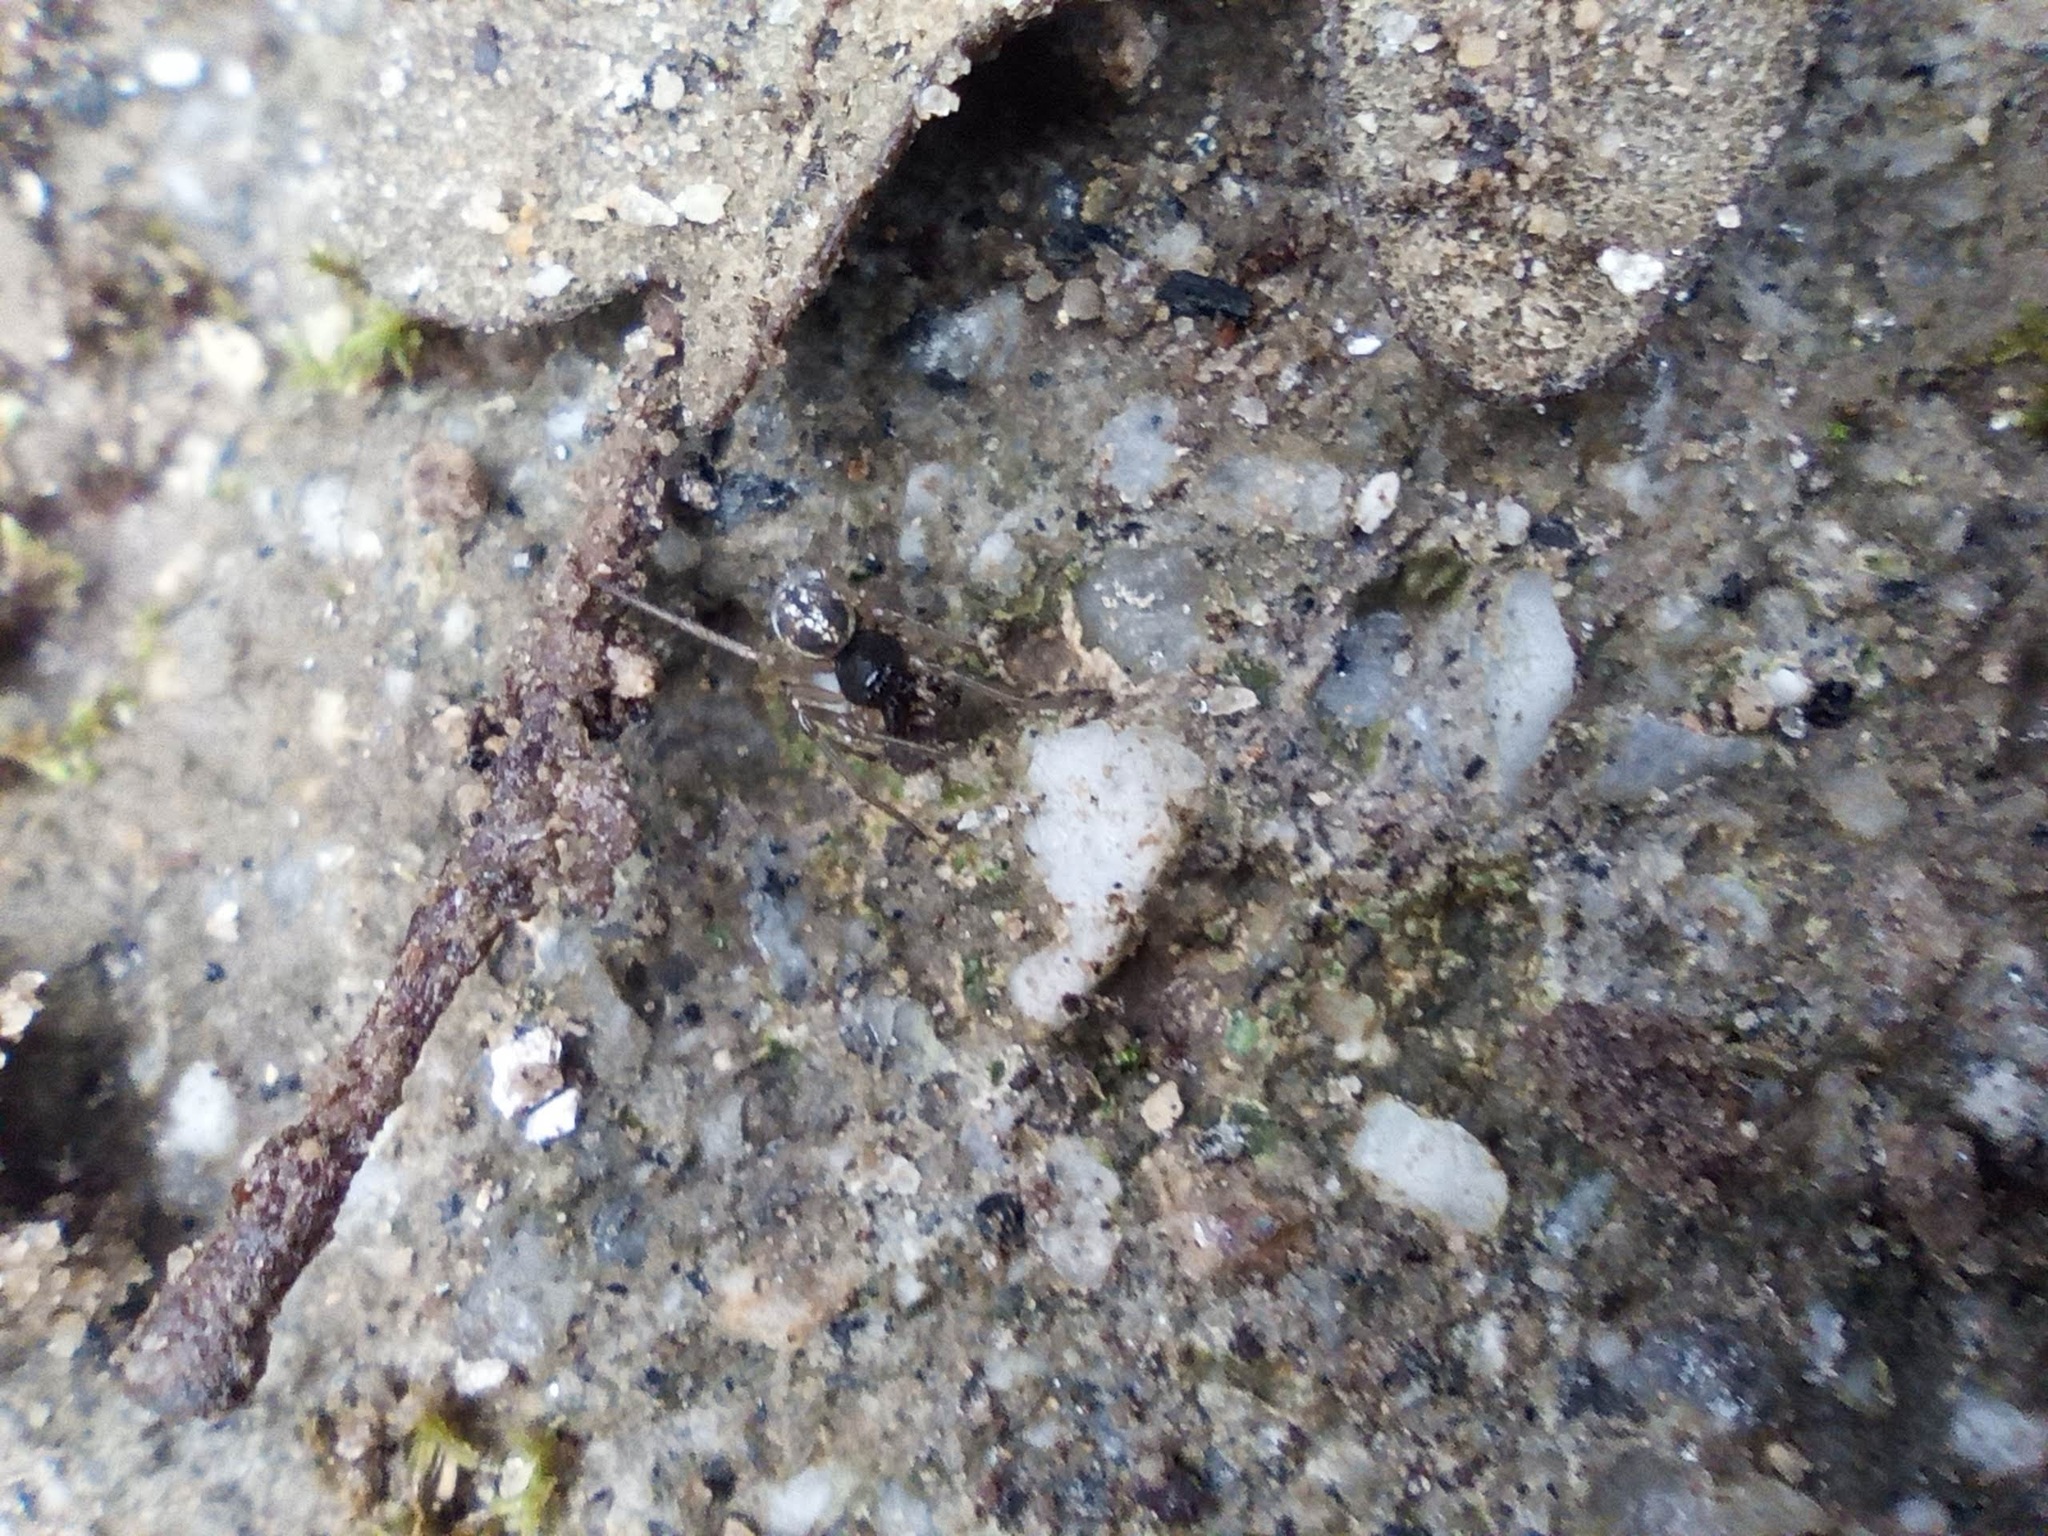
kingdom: Animalia
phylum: Arthropoda
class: Arachnida
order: Araneae
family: Tetragnathidae
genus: Pachygnatha
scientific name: Pachygnatha degeeri
